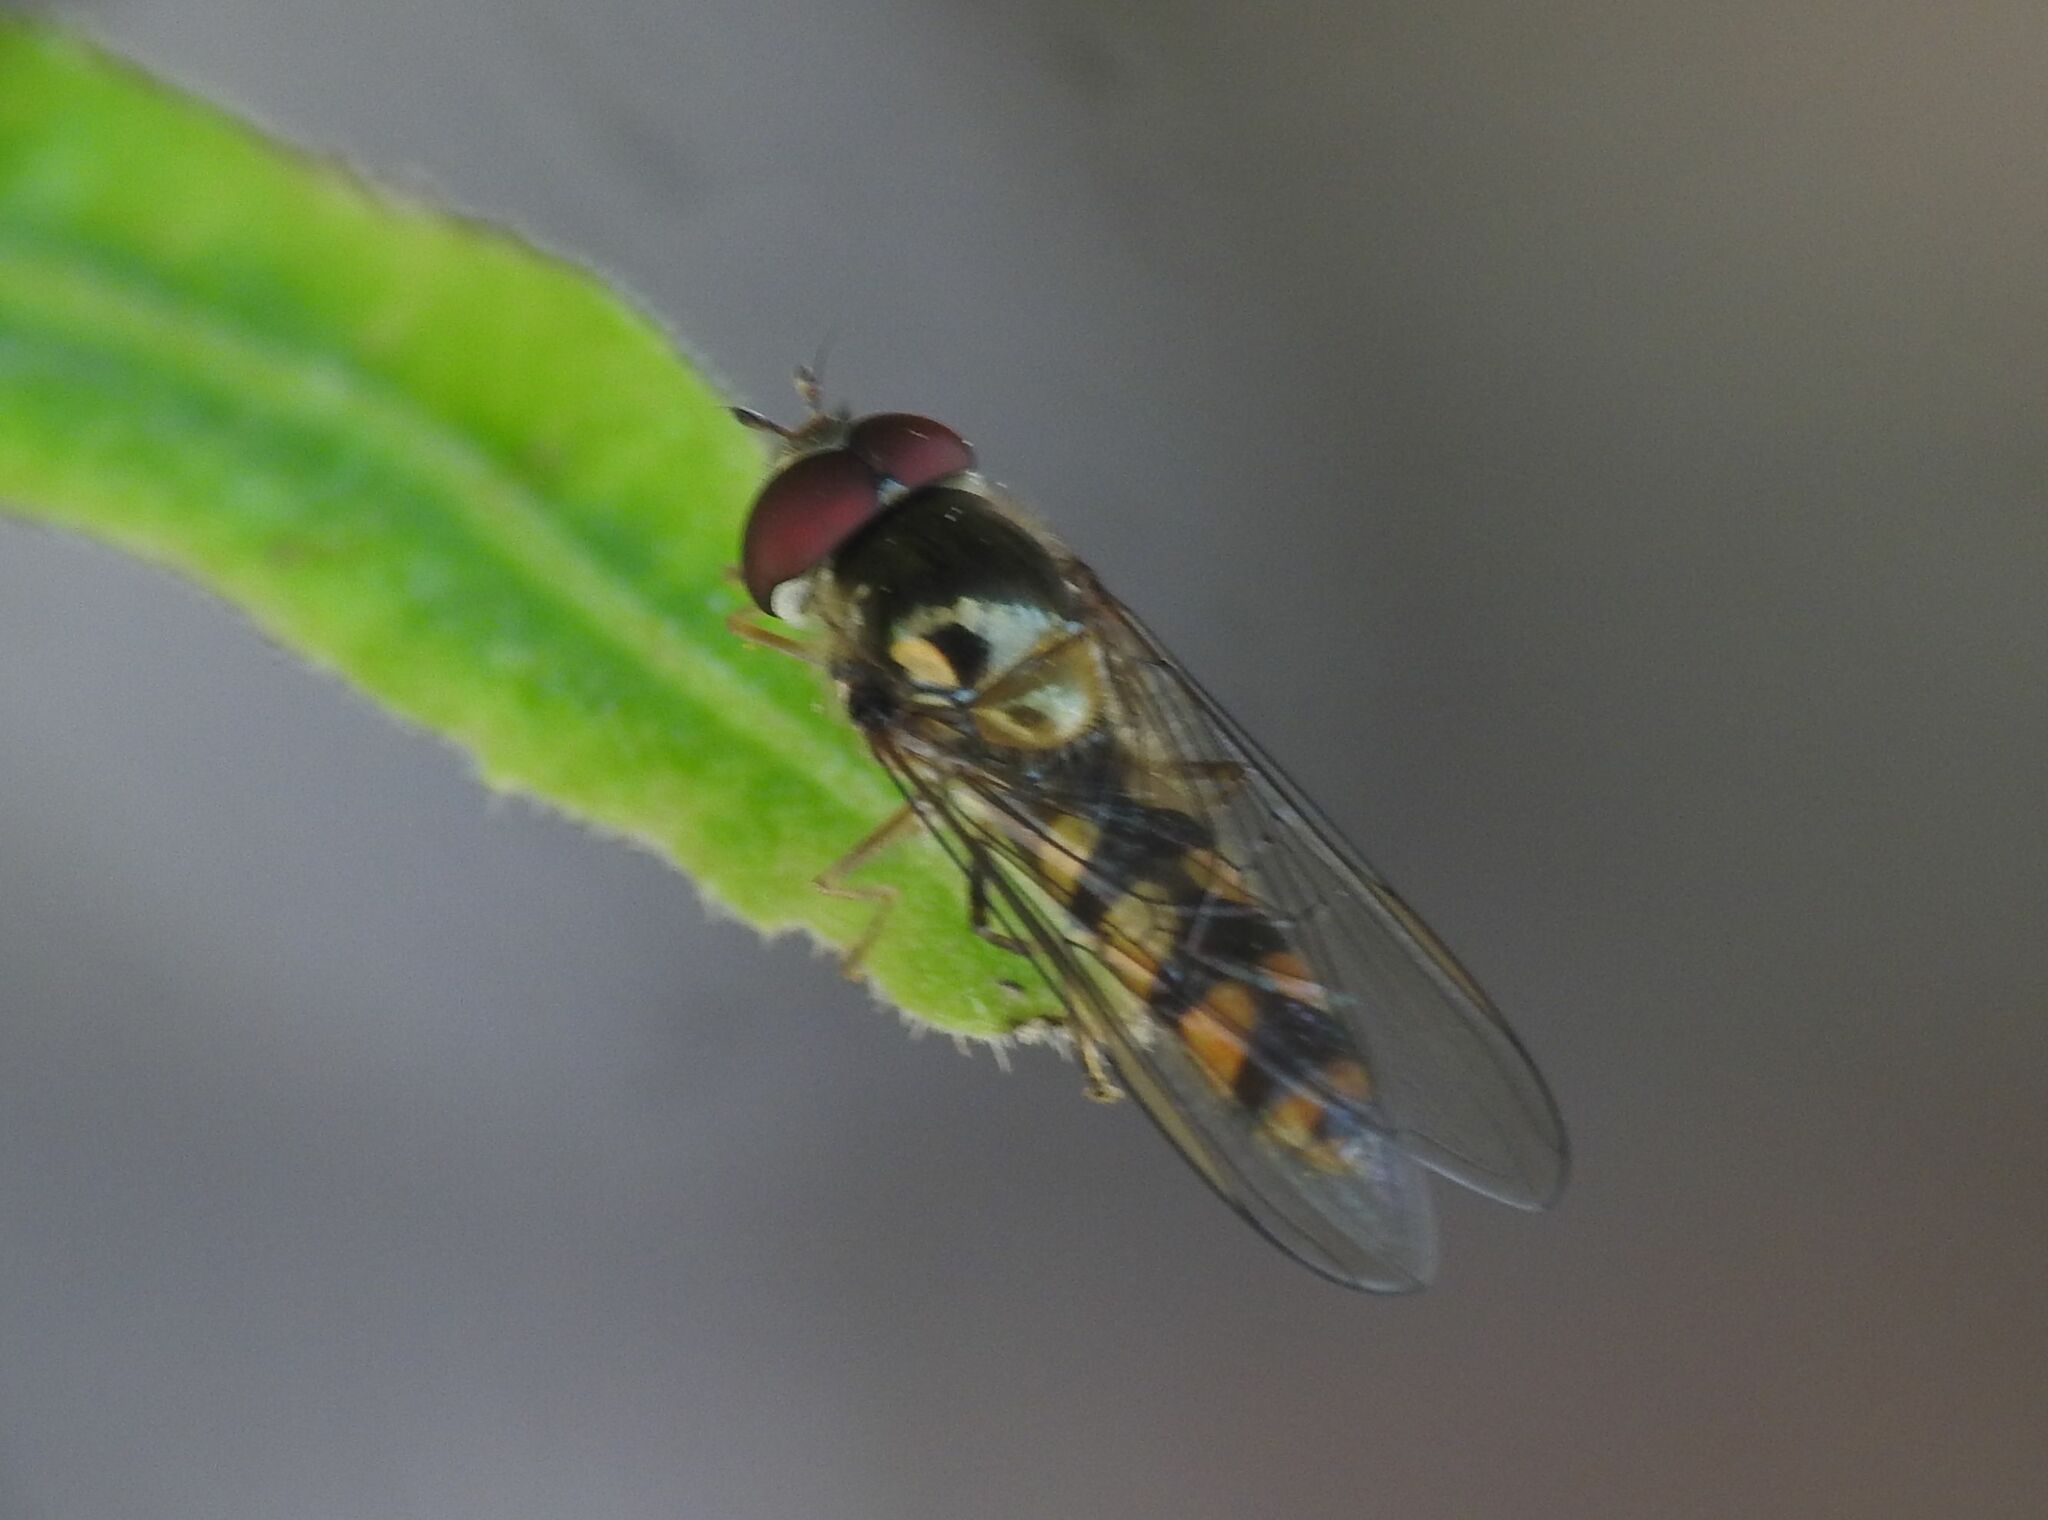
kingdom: Animalia
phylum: Arthropoda
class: Insecta
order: Diptera
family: Syrphidae
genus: Meliscaeva
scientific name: Meliscaeva auricollis
